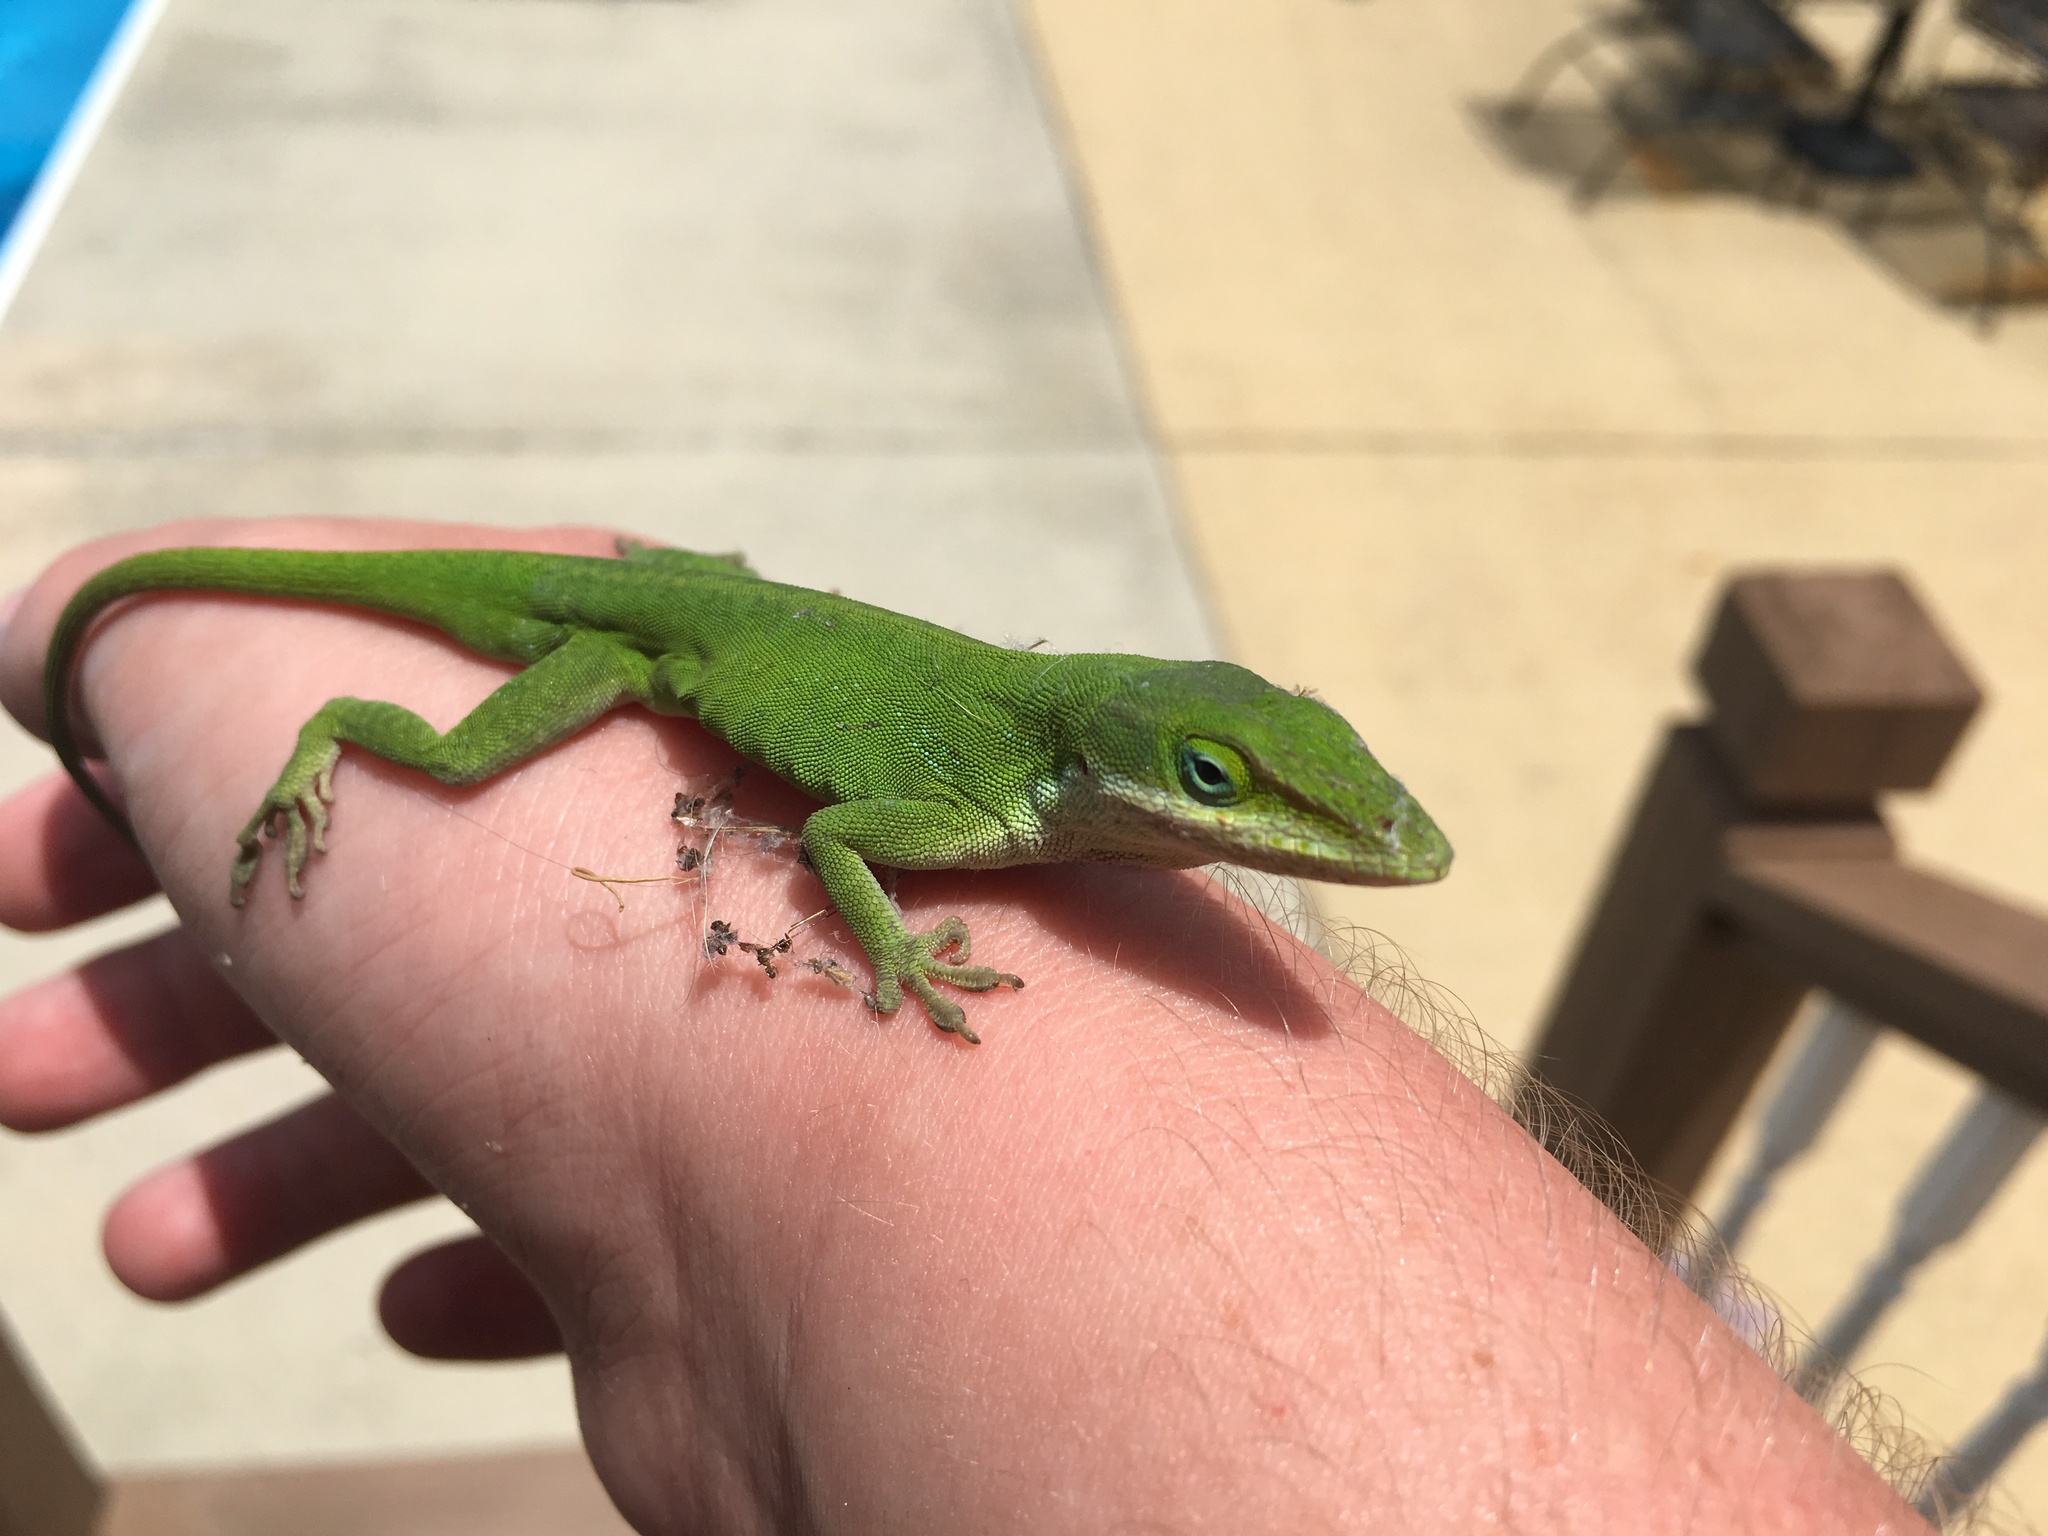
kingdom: Animalia
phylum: Chordata
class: Squamata
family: Dactyloidae
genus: Anolis
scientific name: Anolis carolinensis
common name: Green anole
